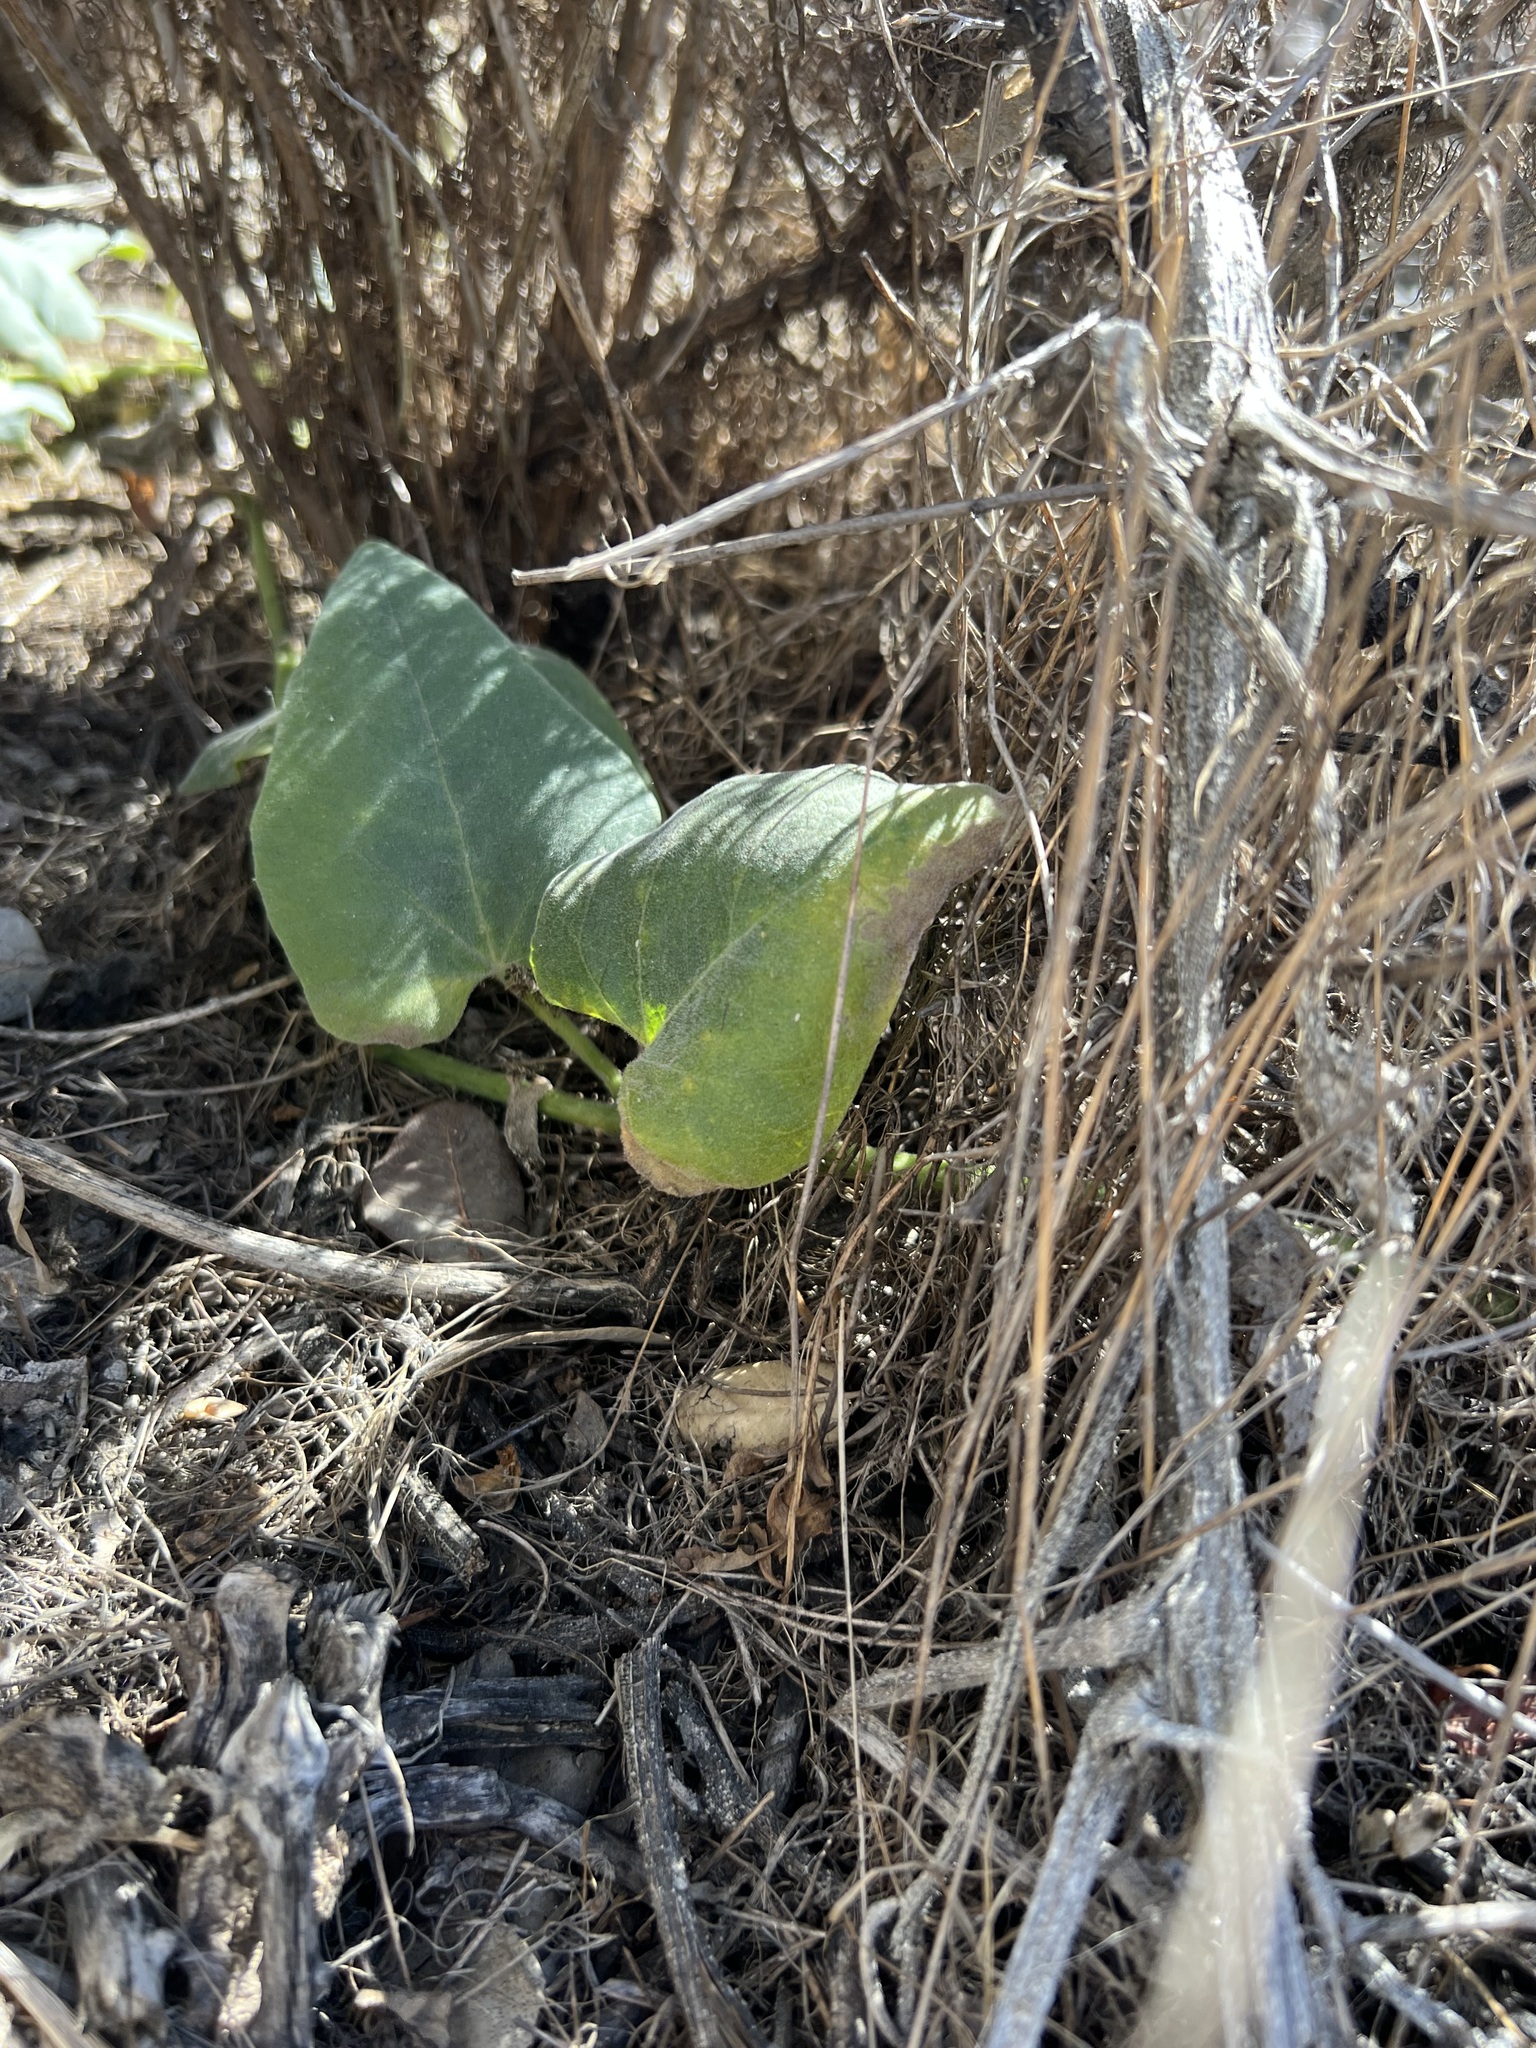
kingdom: Plantae
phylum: Tracheophyta
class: Magnoliopsida
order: Cucurbitales
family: Cucurbitaceae
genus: Cucurbita
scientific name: Cucurbita foetidissima
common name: Buffalo gourd
